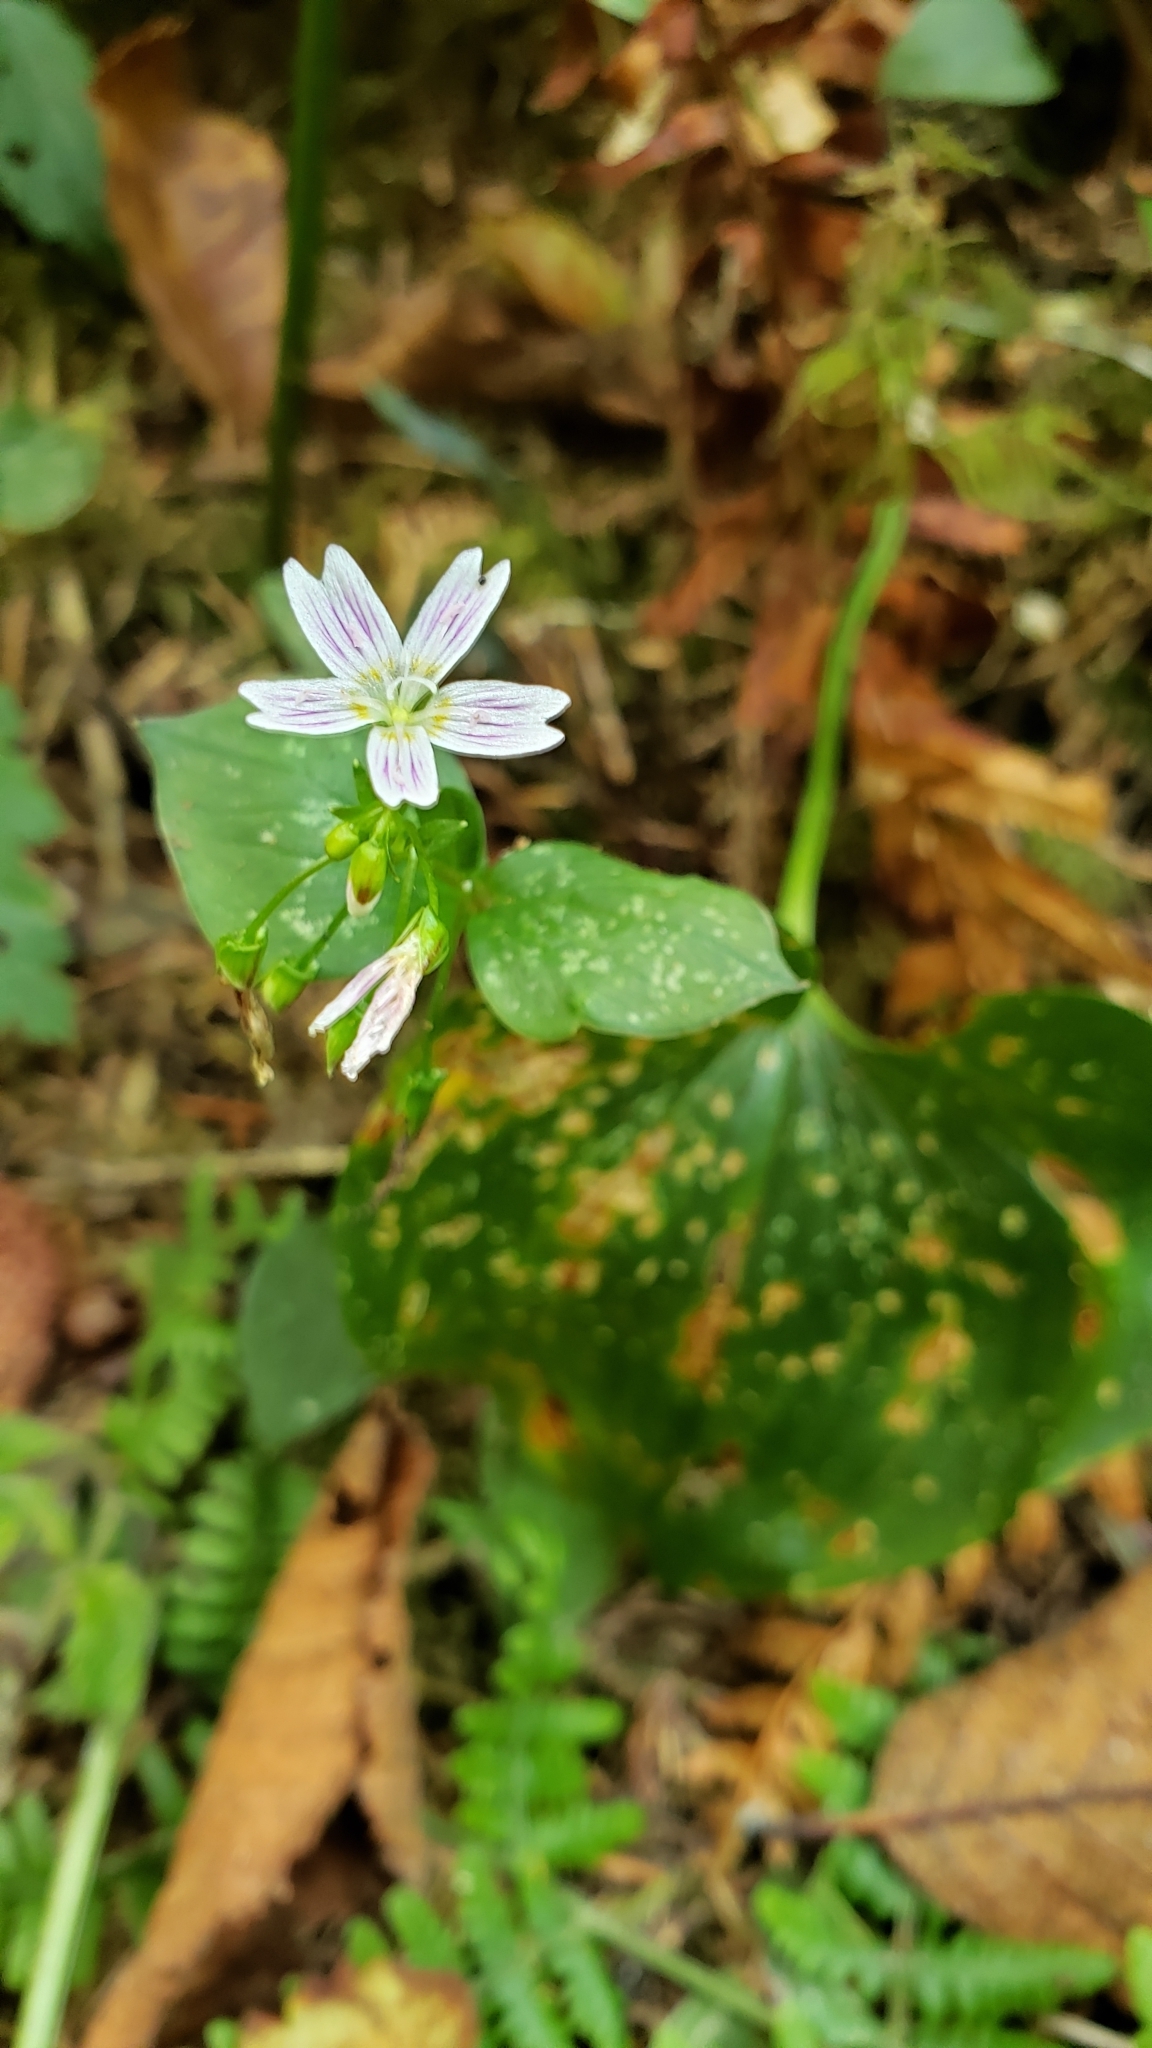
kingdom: Plantae
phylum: Tracheophyta
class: Magnoliopsida
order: Caryophyllales
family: Montiaceae
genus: Claytonia
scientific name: Claytonia sibirica
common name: Pink purslane
